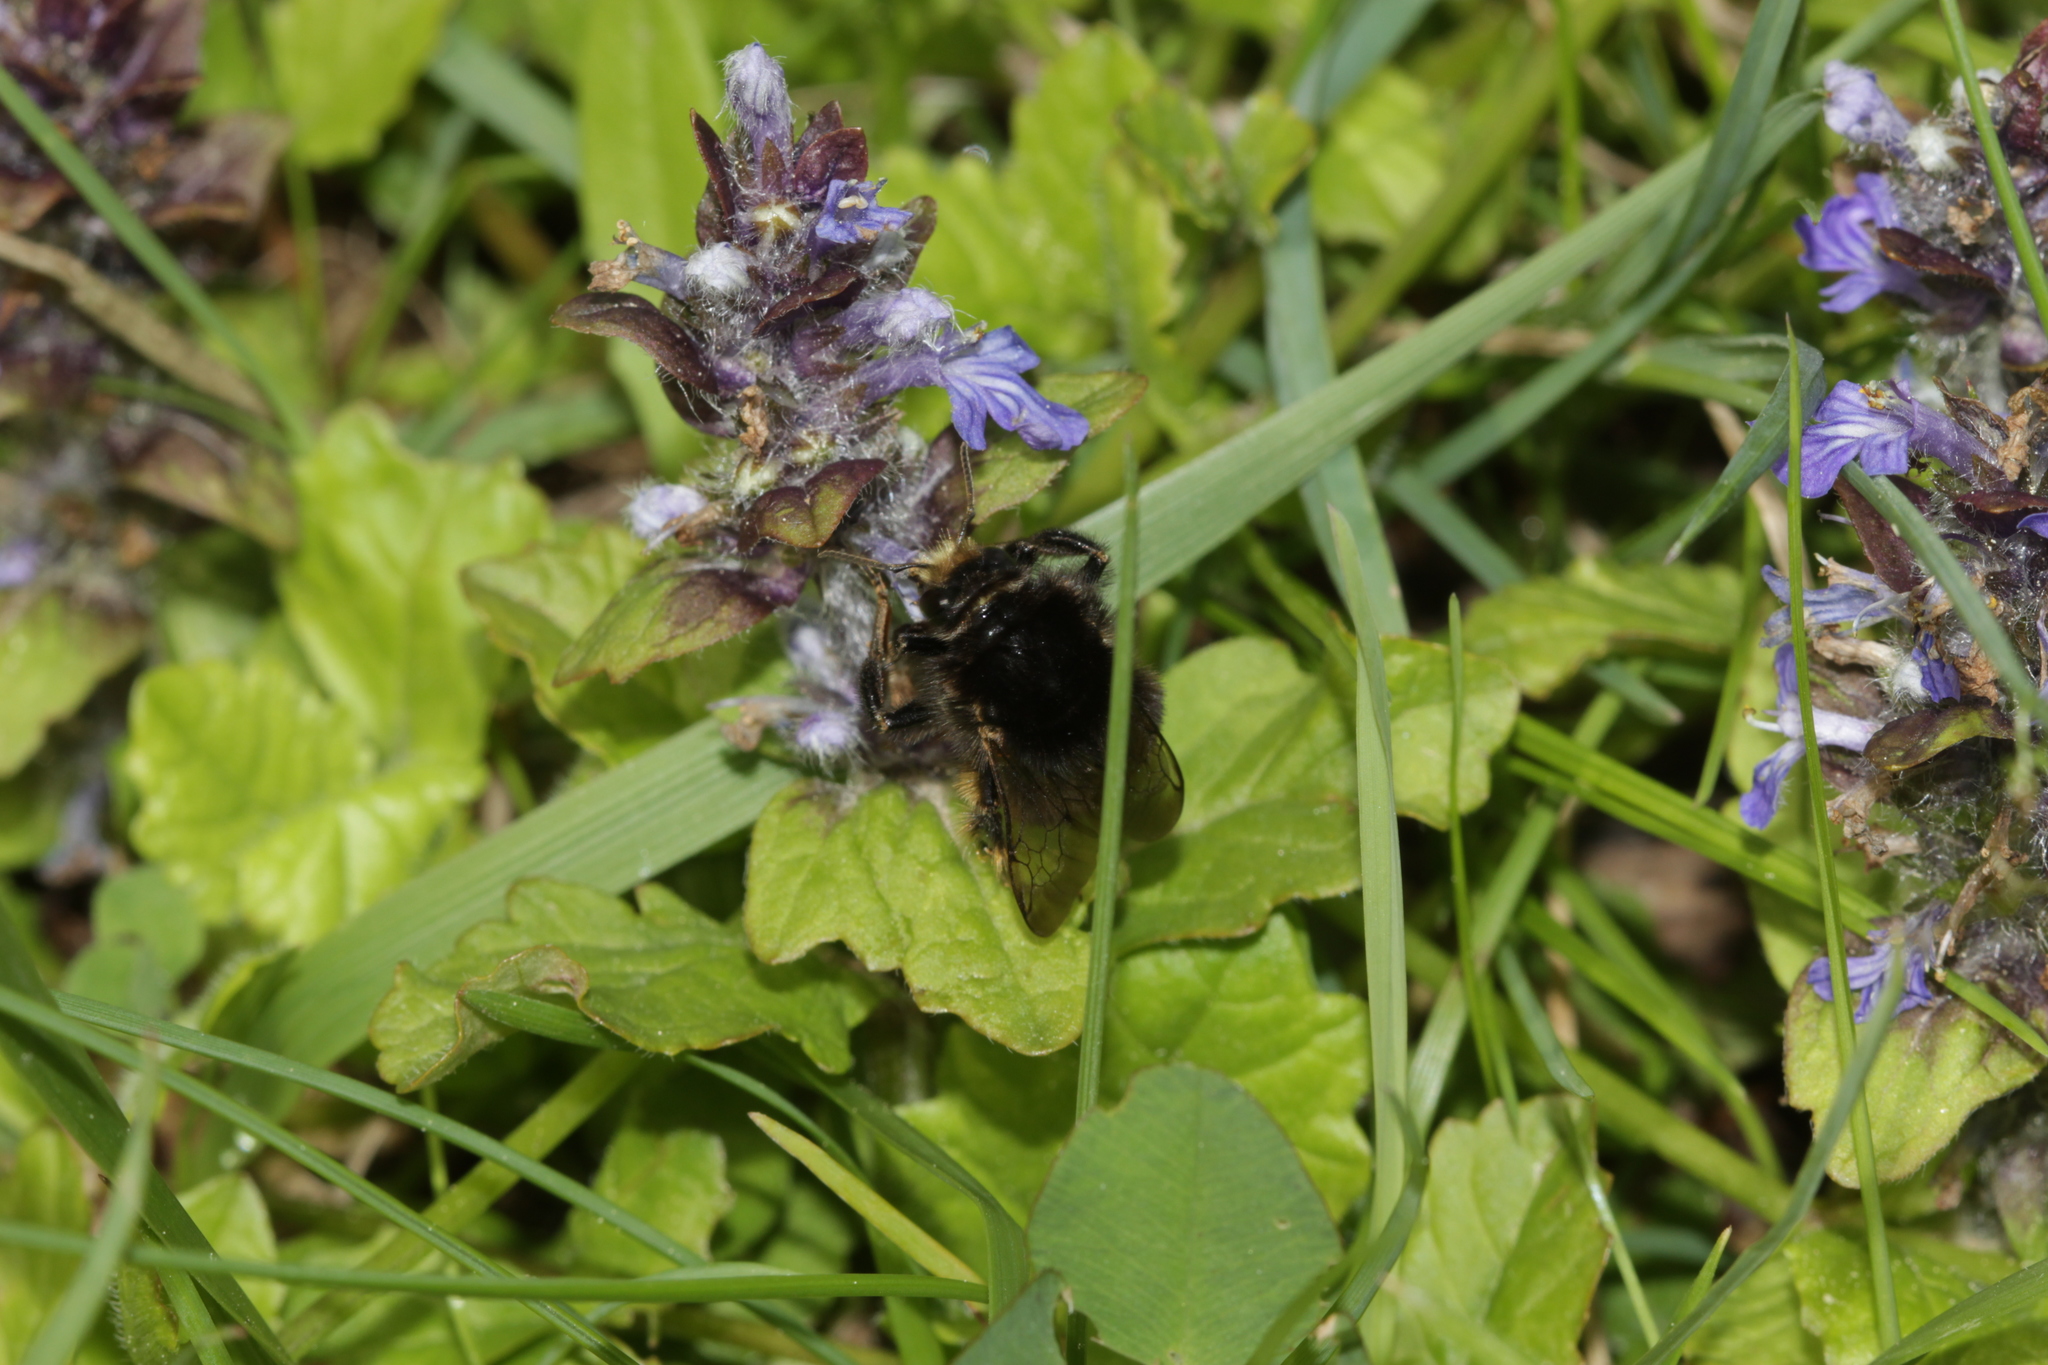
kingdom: Animalia
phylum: Arthropoda
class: Insecta
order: Hymenoptera
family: Apidae
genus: Bombus
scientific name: Bombus humilis
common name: Brown-banded carder-bee
